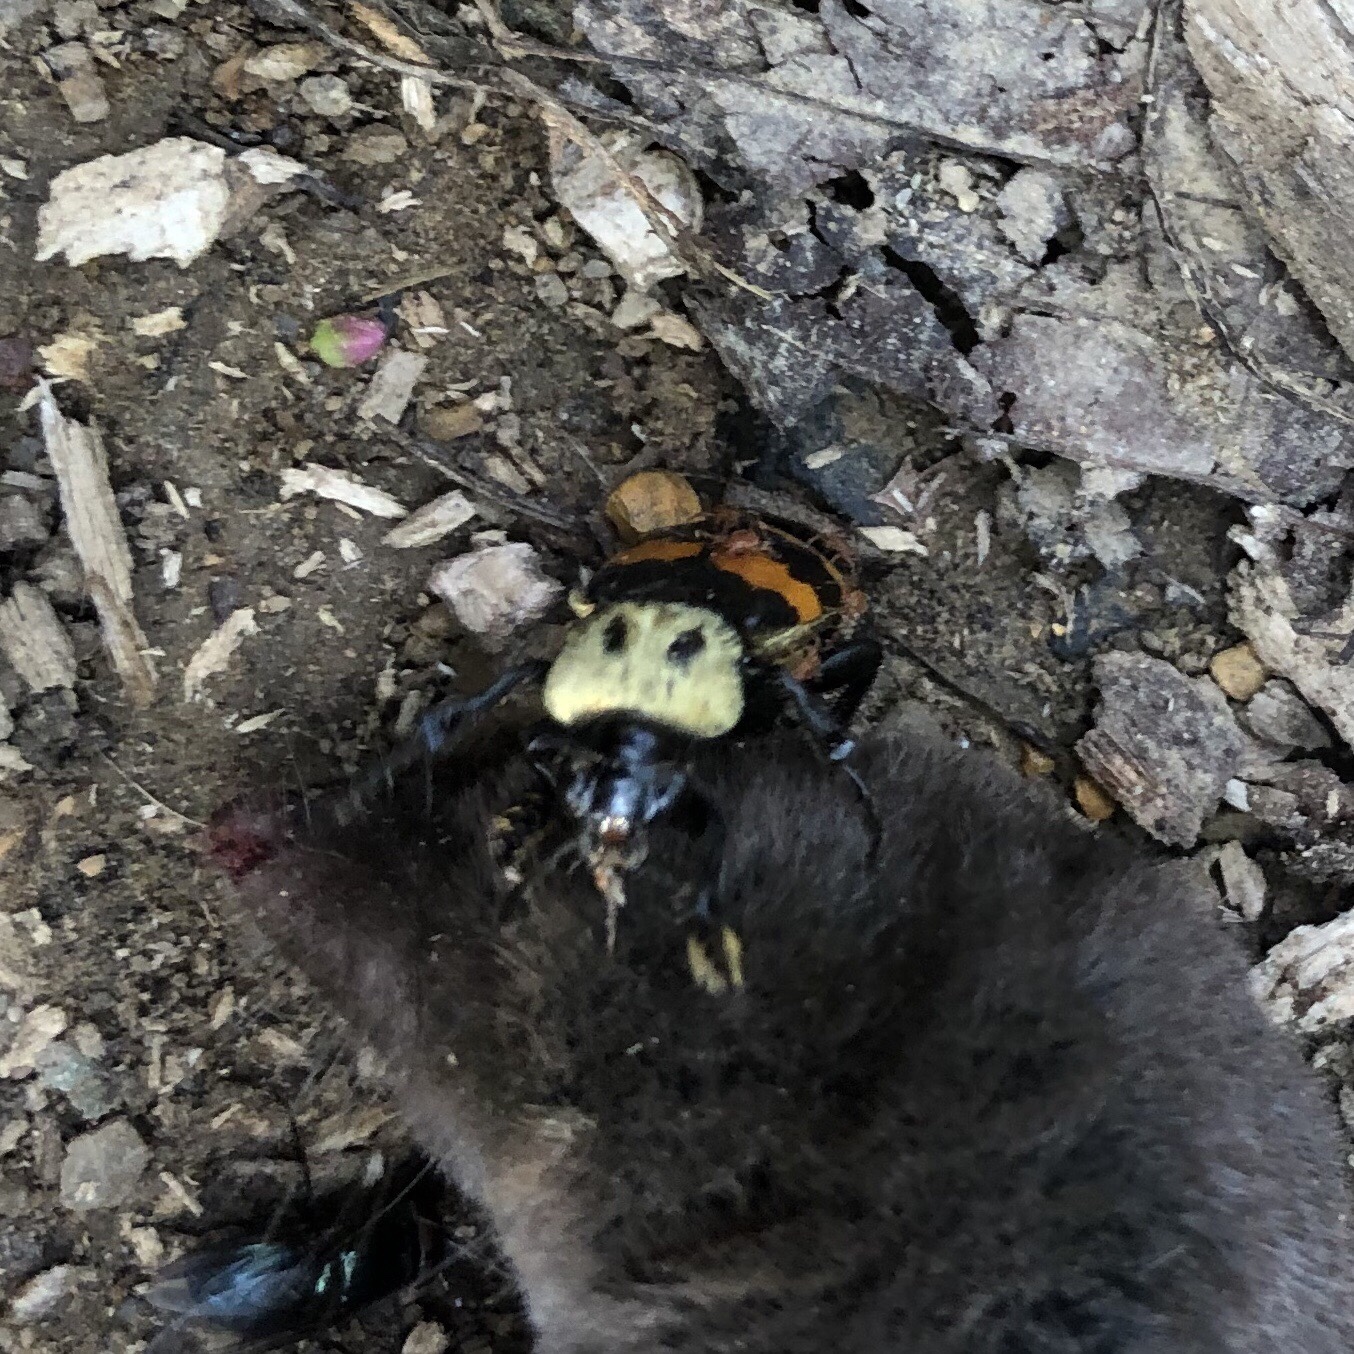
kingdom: Animalia
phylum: Arthropoda
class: Insecta
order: Coleoptera
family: Staphylinidae
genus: Nicrophorus
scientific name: Nicrophorus tomentosus
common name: Tomentose burying beetle
